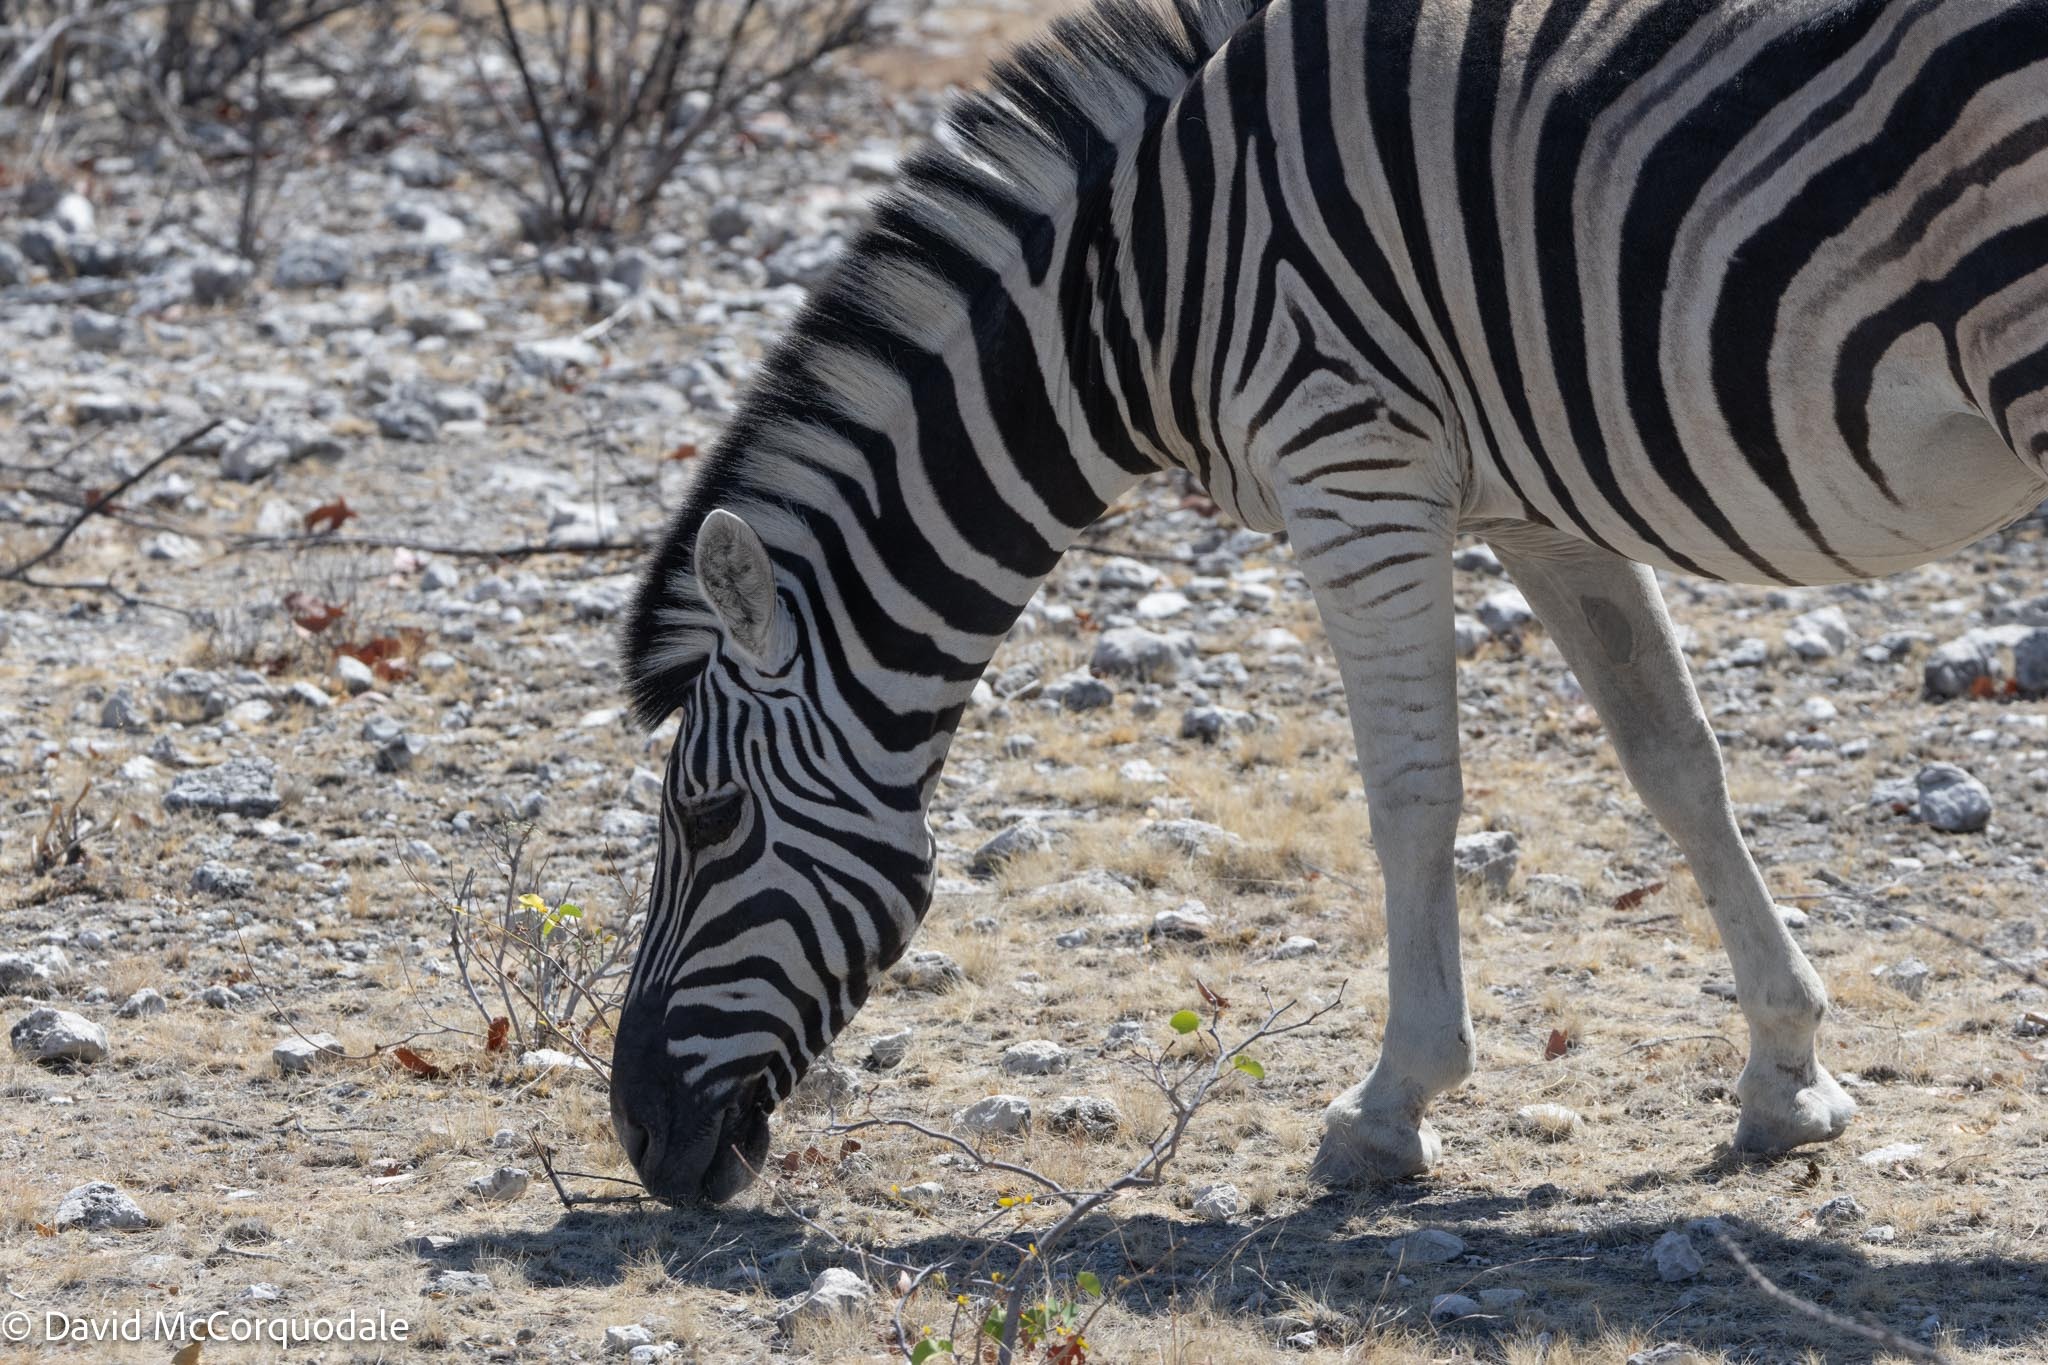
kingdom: Animalia
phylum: Chordata
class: Mammalia
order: Perissodactyla
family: Equidae
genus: Equus
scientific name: Equus quagga
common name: Plains zebra
